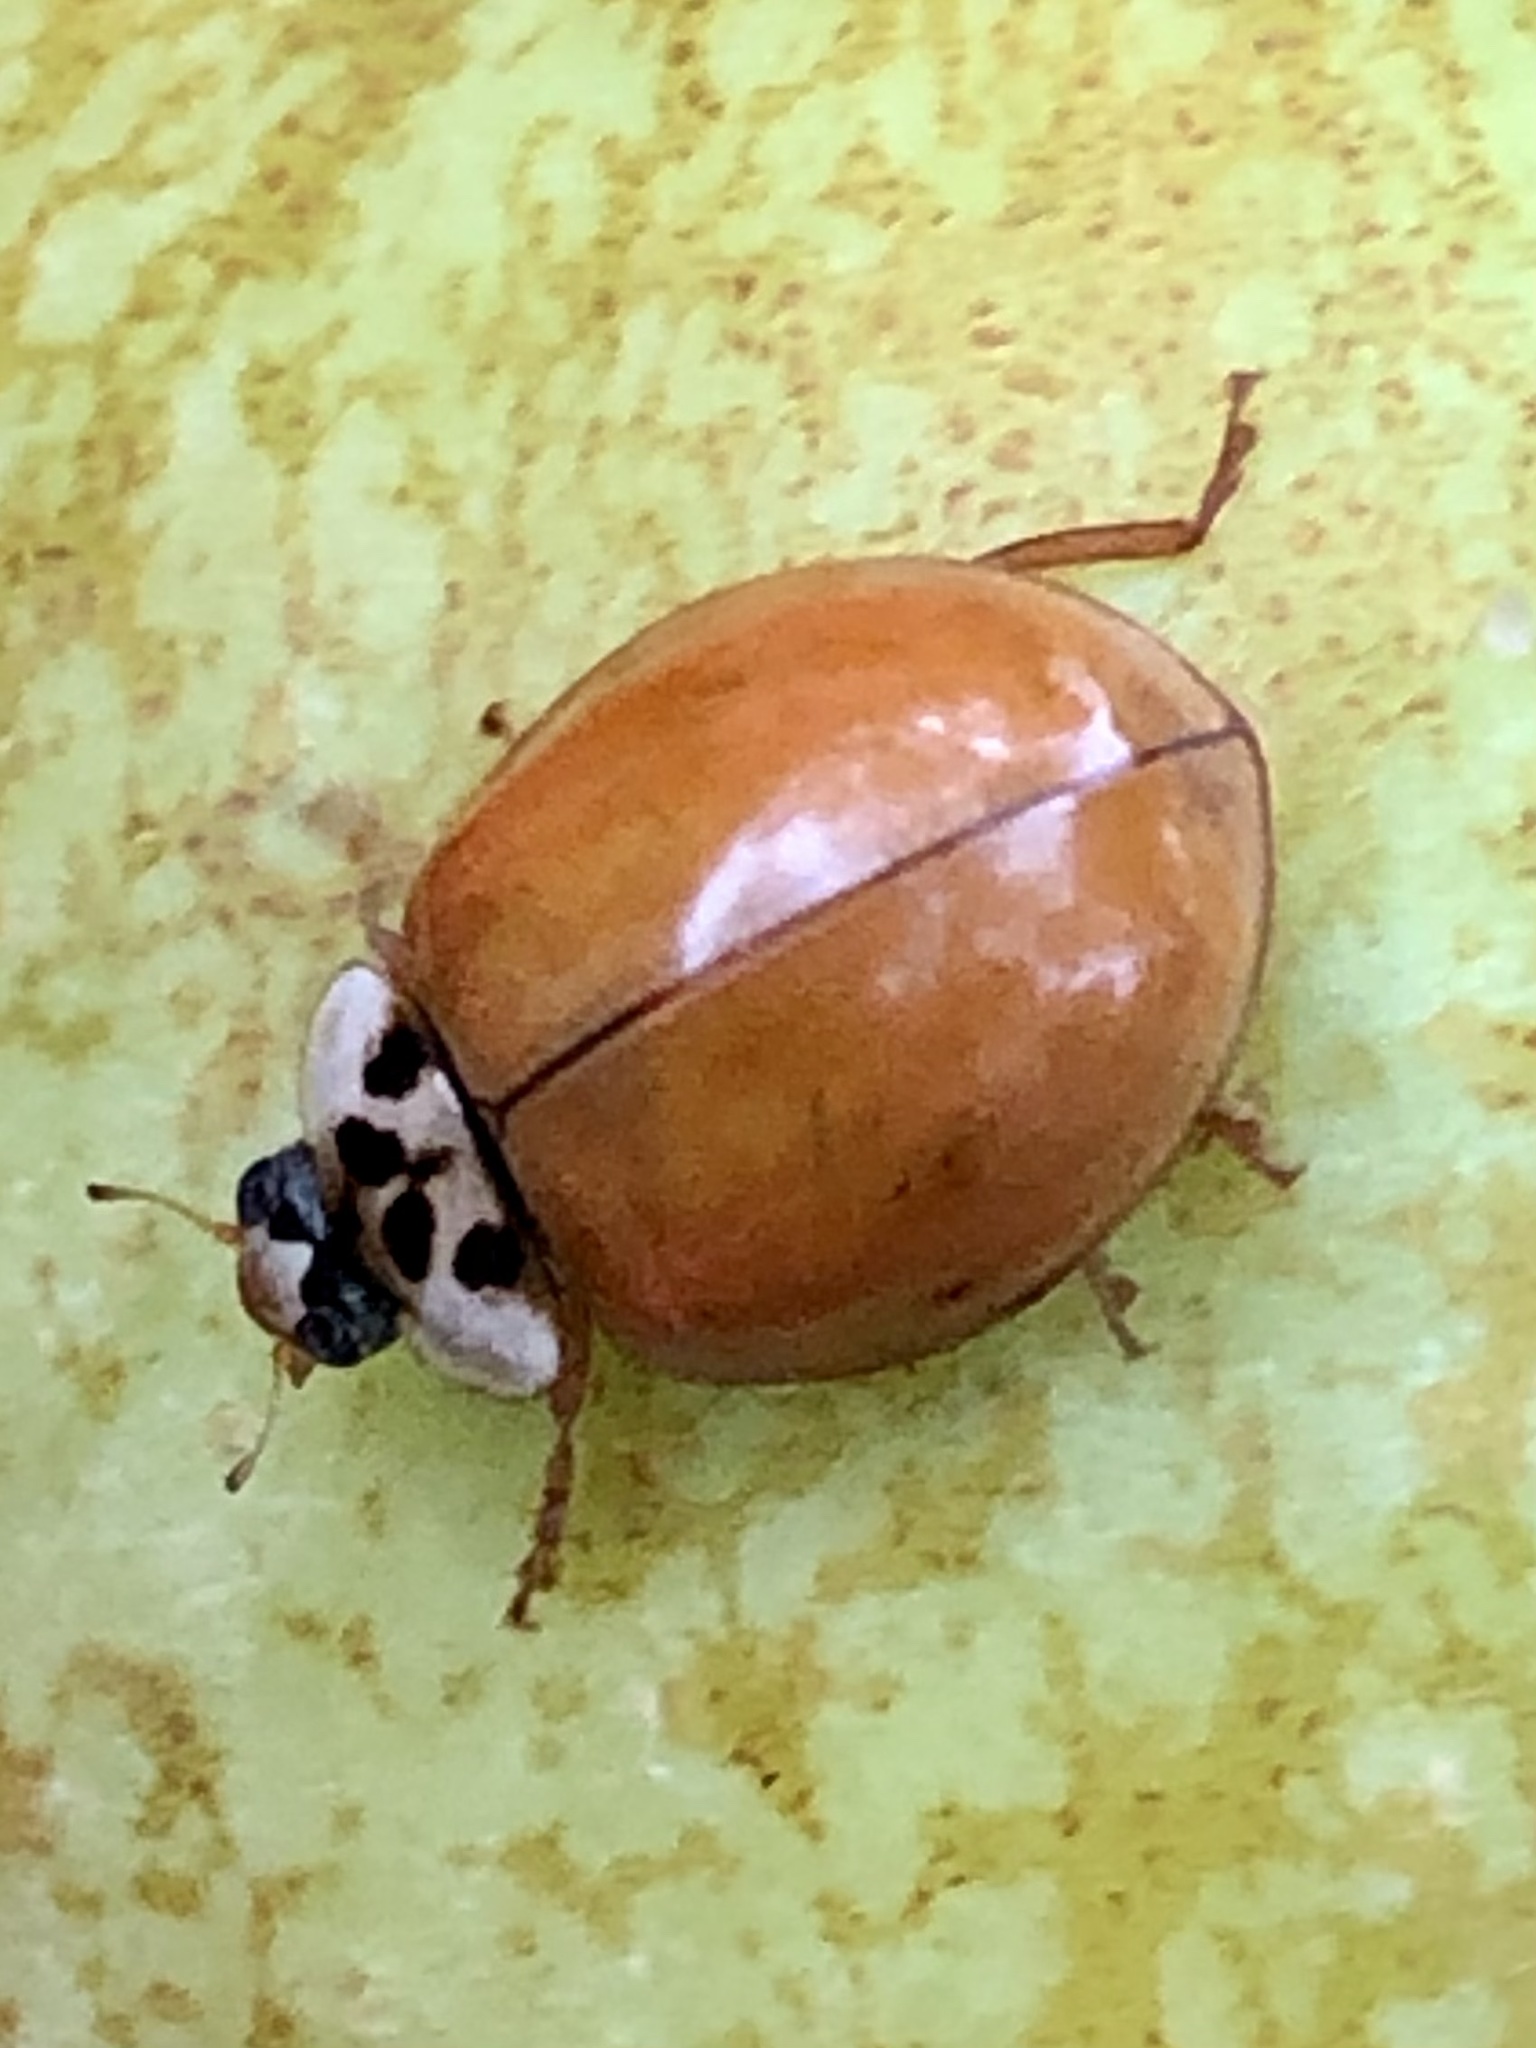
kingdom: Animalia
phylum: Arthropoda
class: Insecta
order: Coleoptera
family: Coccinellidae
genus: Harmonia
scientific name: Harmonia axyridis
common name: Harlequin ladybird
